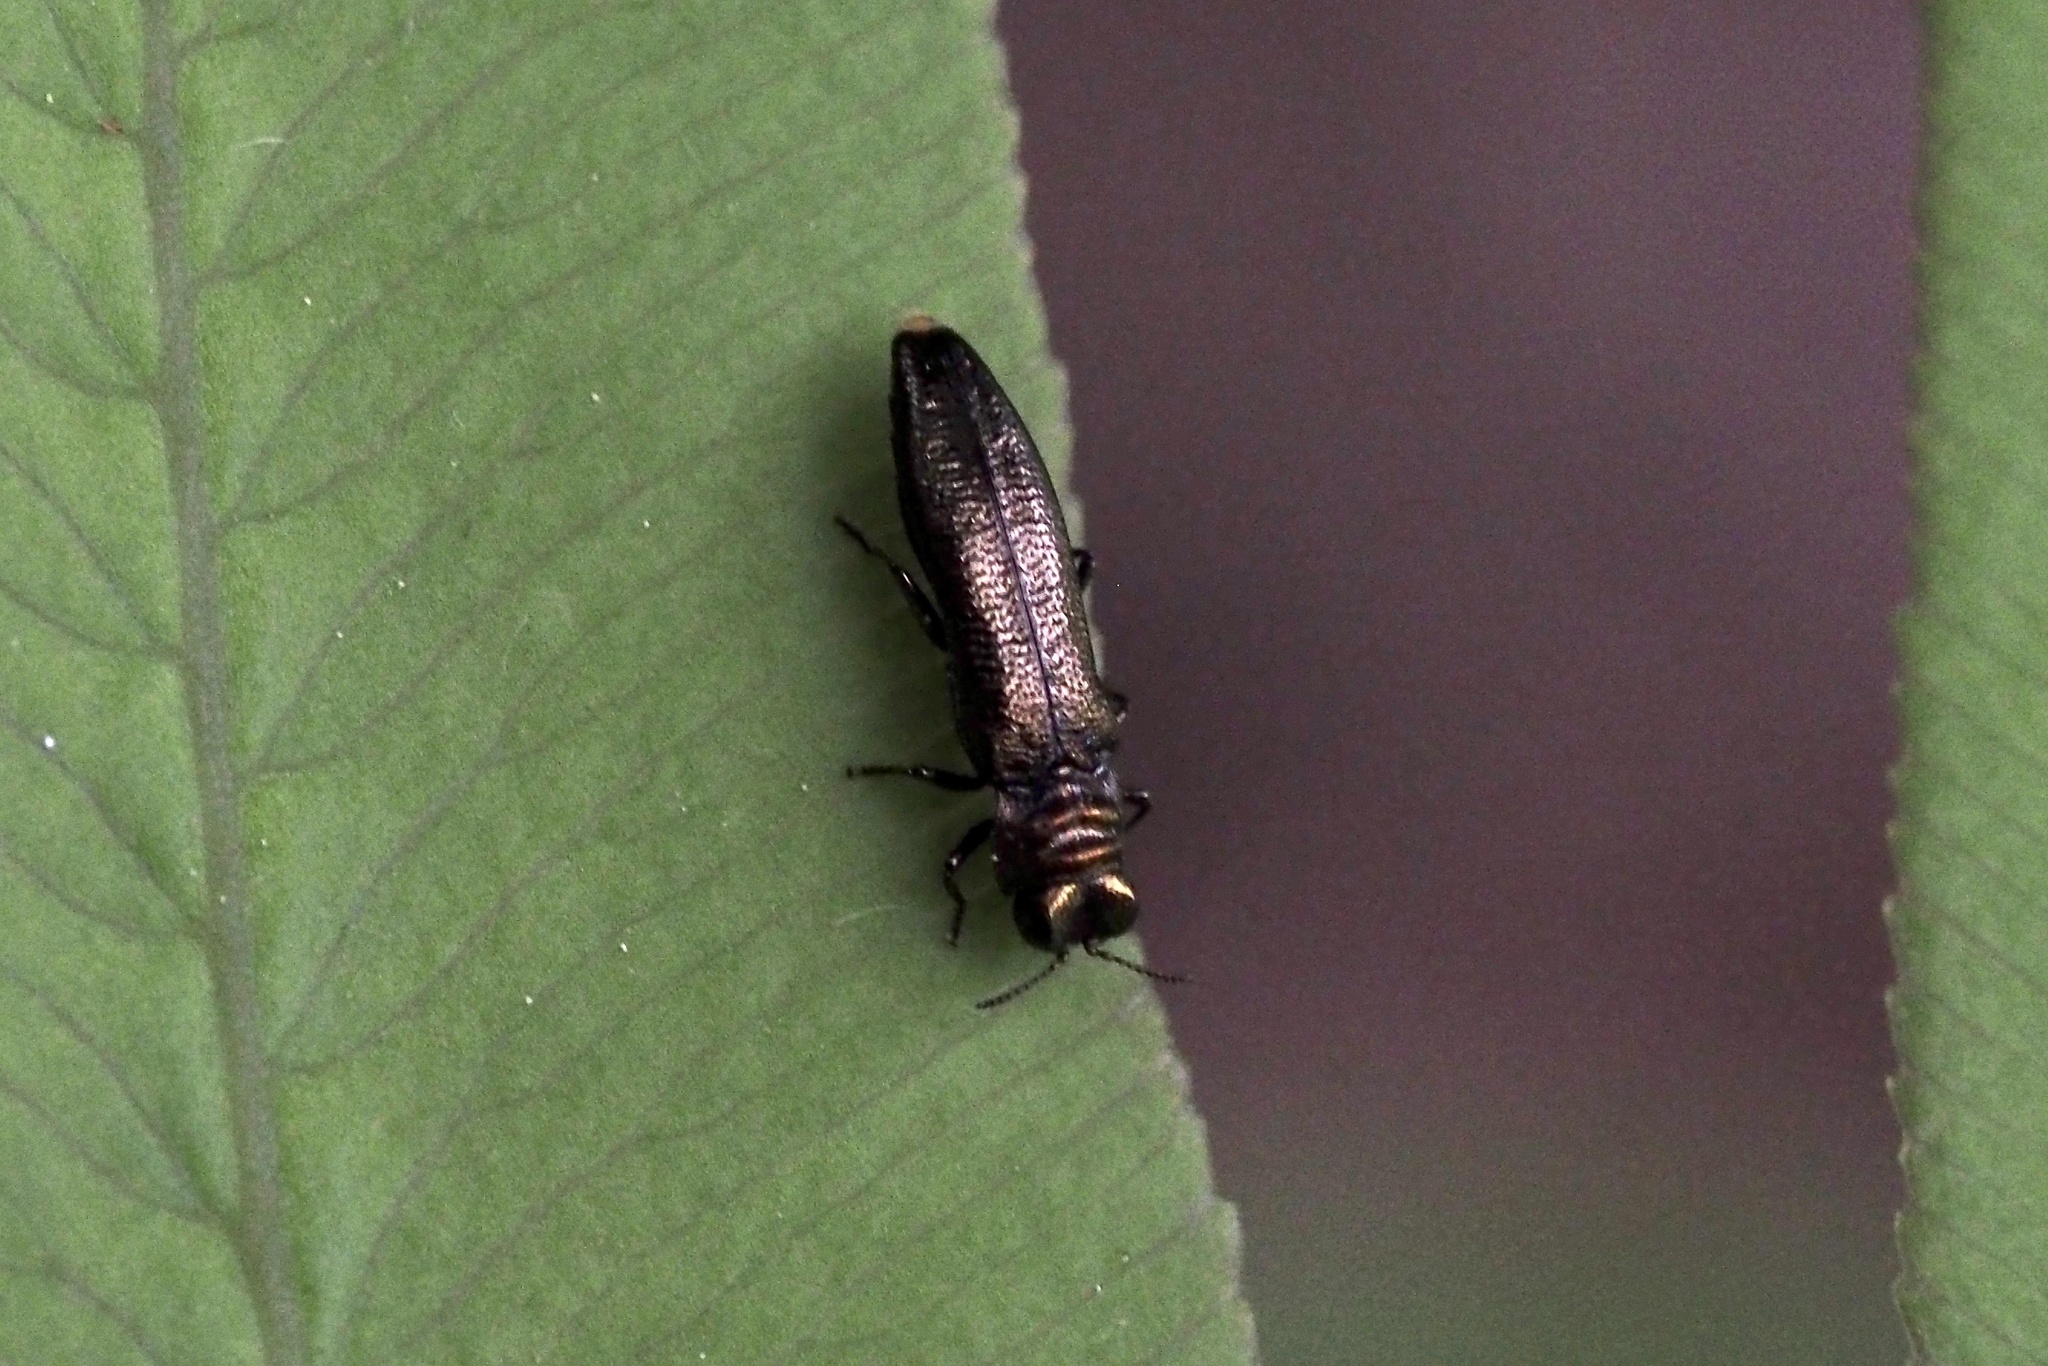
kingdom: Animalia
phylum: Arthropoda
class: Insecta
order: Coleoptera
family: Buprestidae
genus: Endelus
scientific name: Endelus collaris
